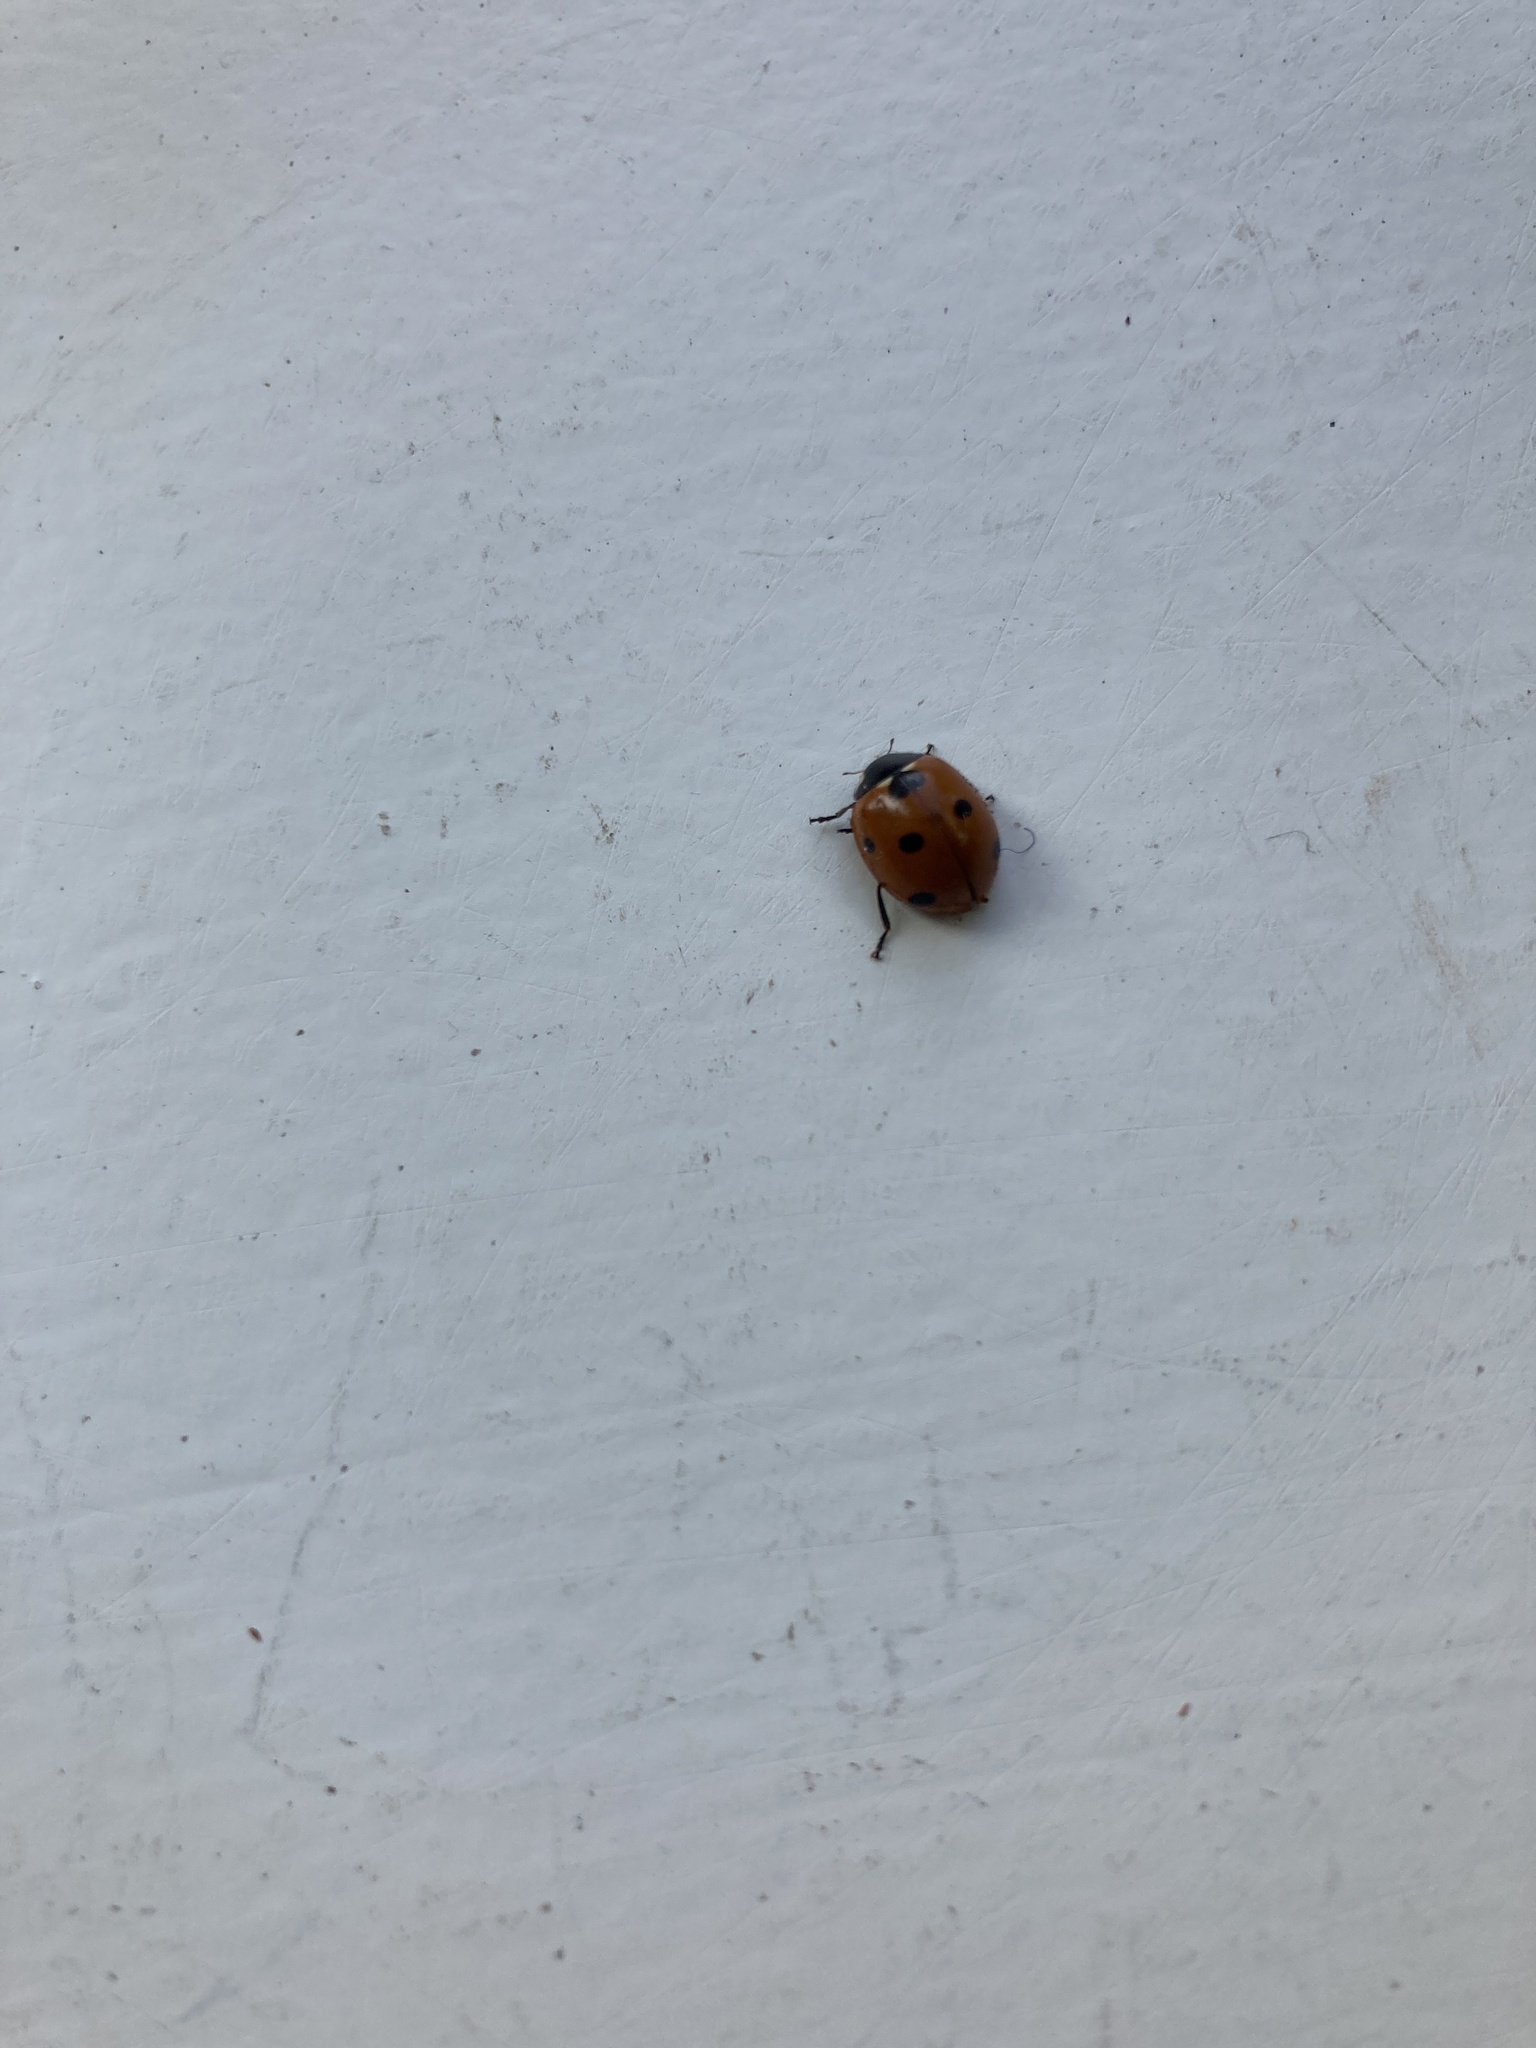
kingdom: Animalia
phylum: Arthropoda
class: Insecta
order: Coleoptera
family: Coccinellidae
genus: Coccinella
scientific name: Coccinella septempunctata
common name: Sevenspotted lady beetle
